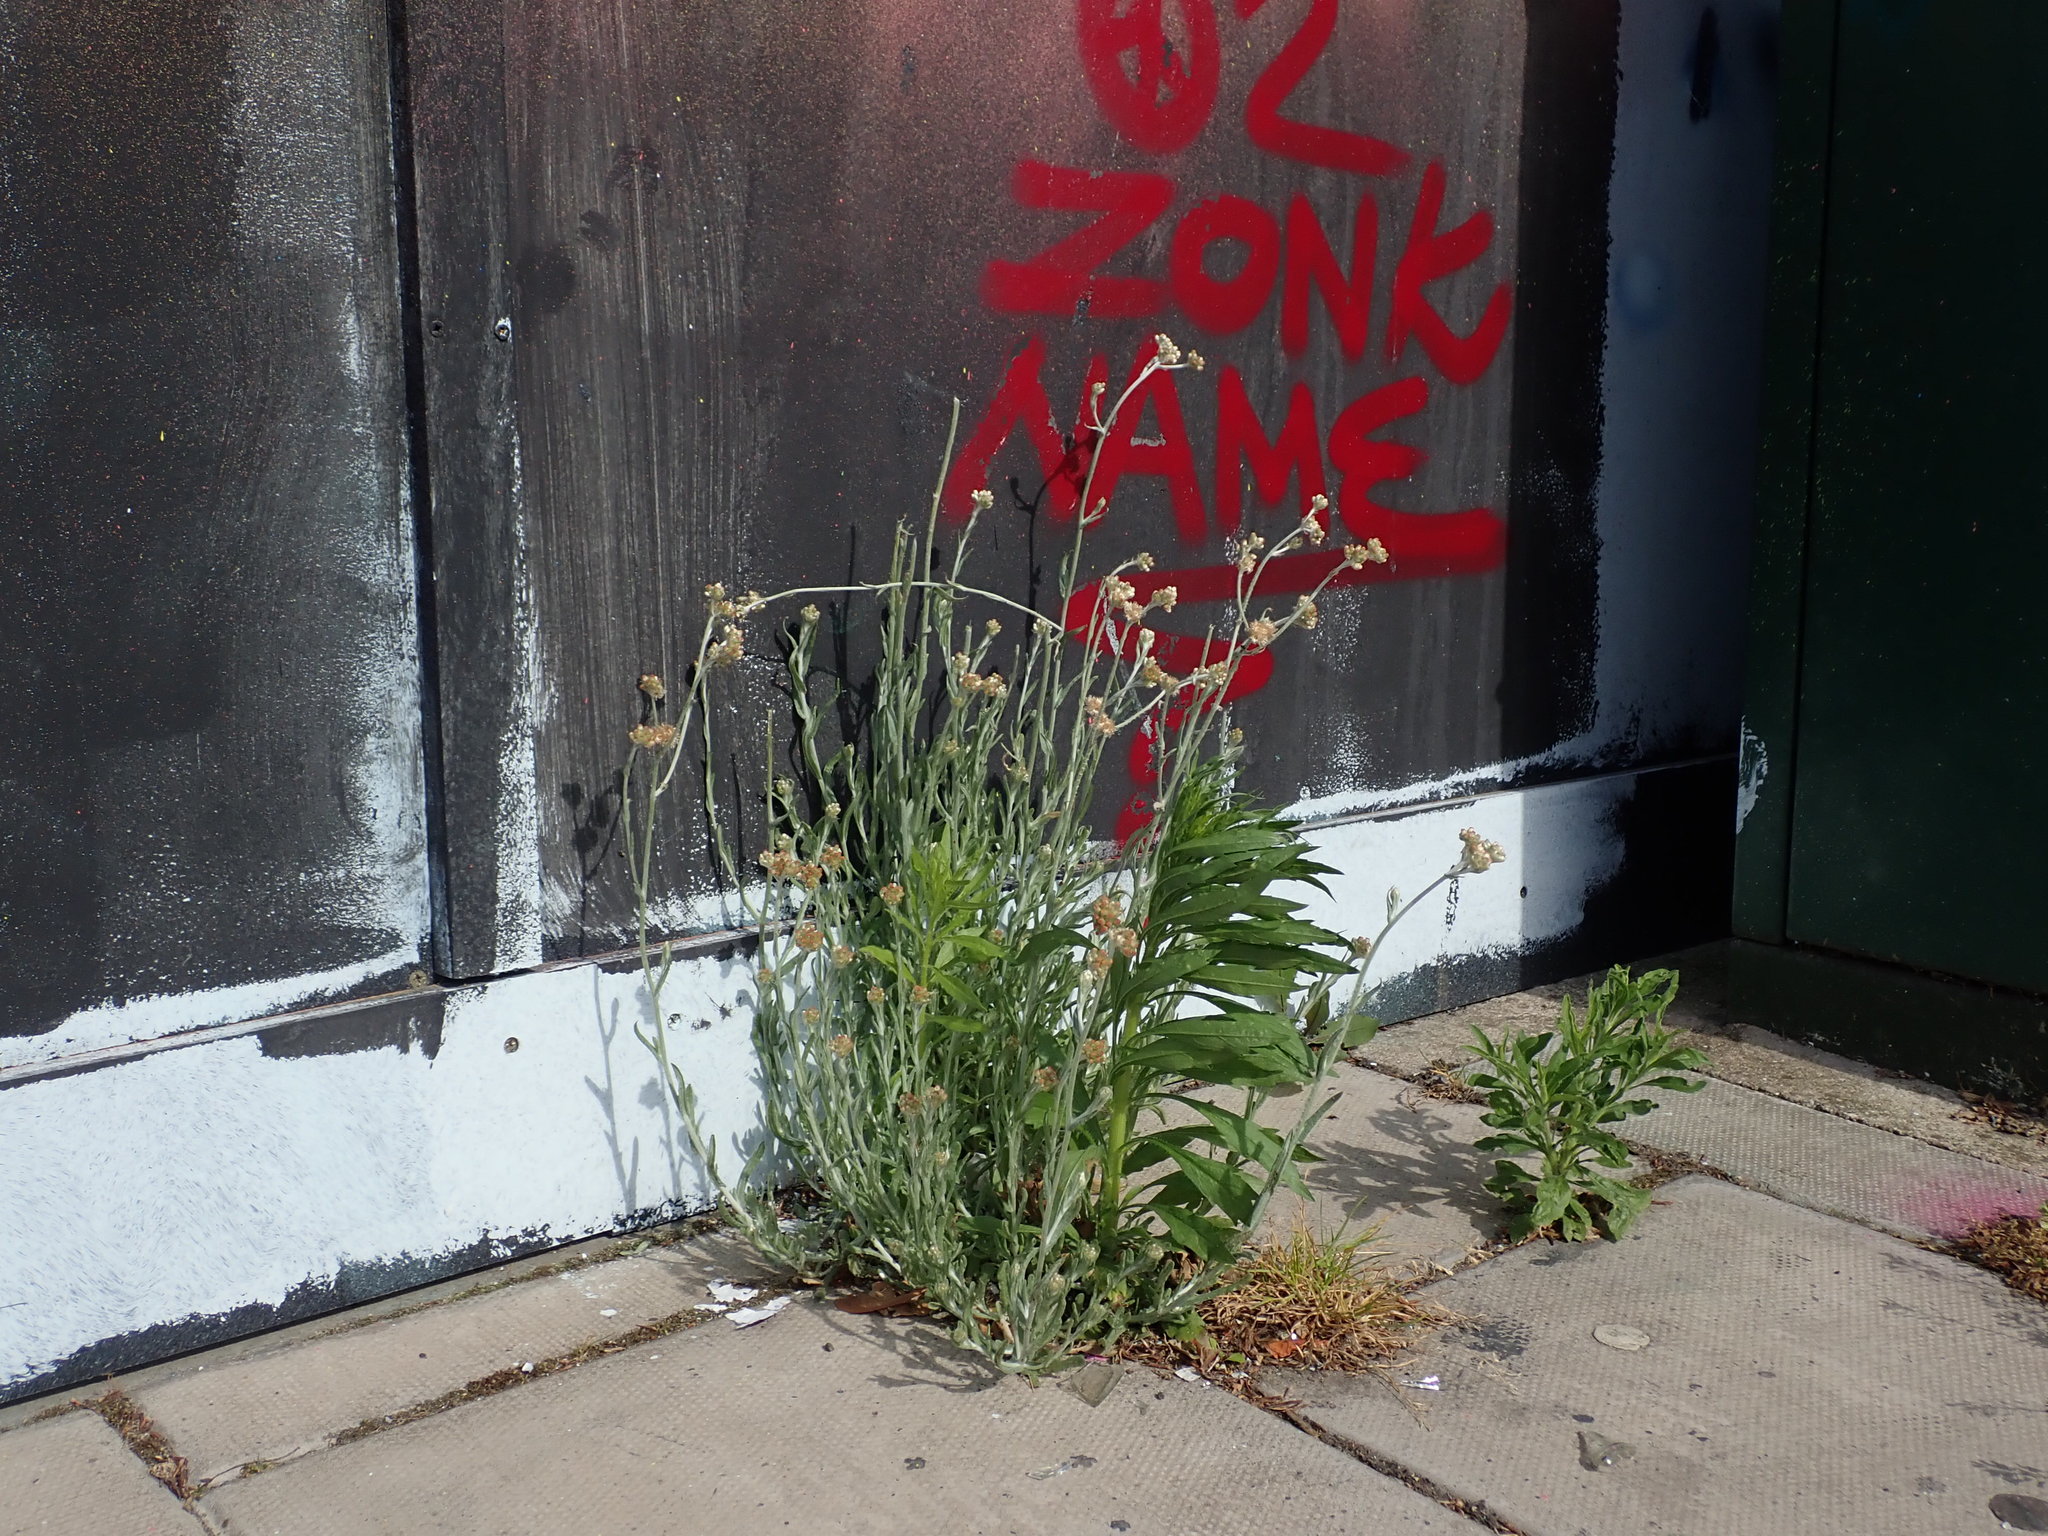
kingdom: Plantae
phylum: Tracheophyta
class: Magnoliopsida
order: Asterales
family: Asteraceae
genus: Helichrysum
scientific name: Helichrysum luteoalbum
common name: Daisy
